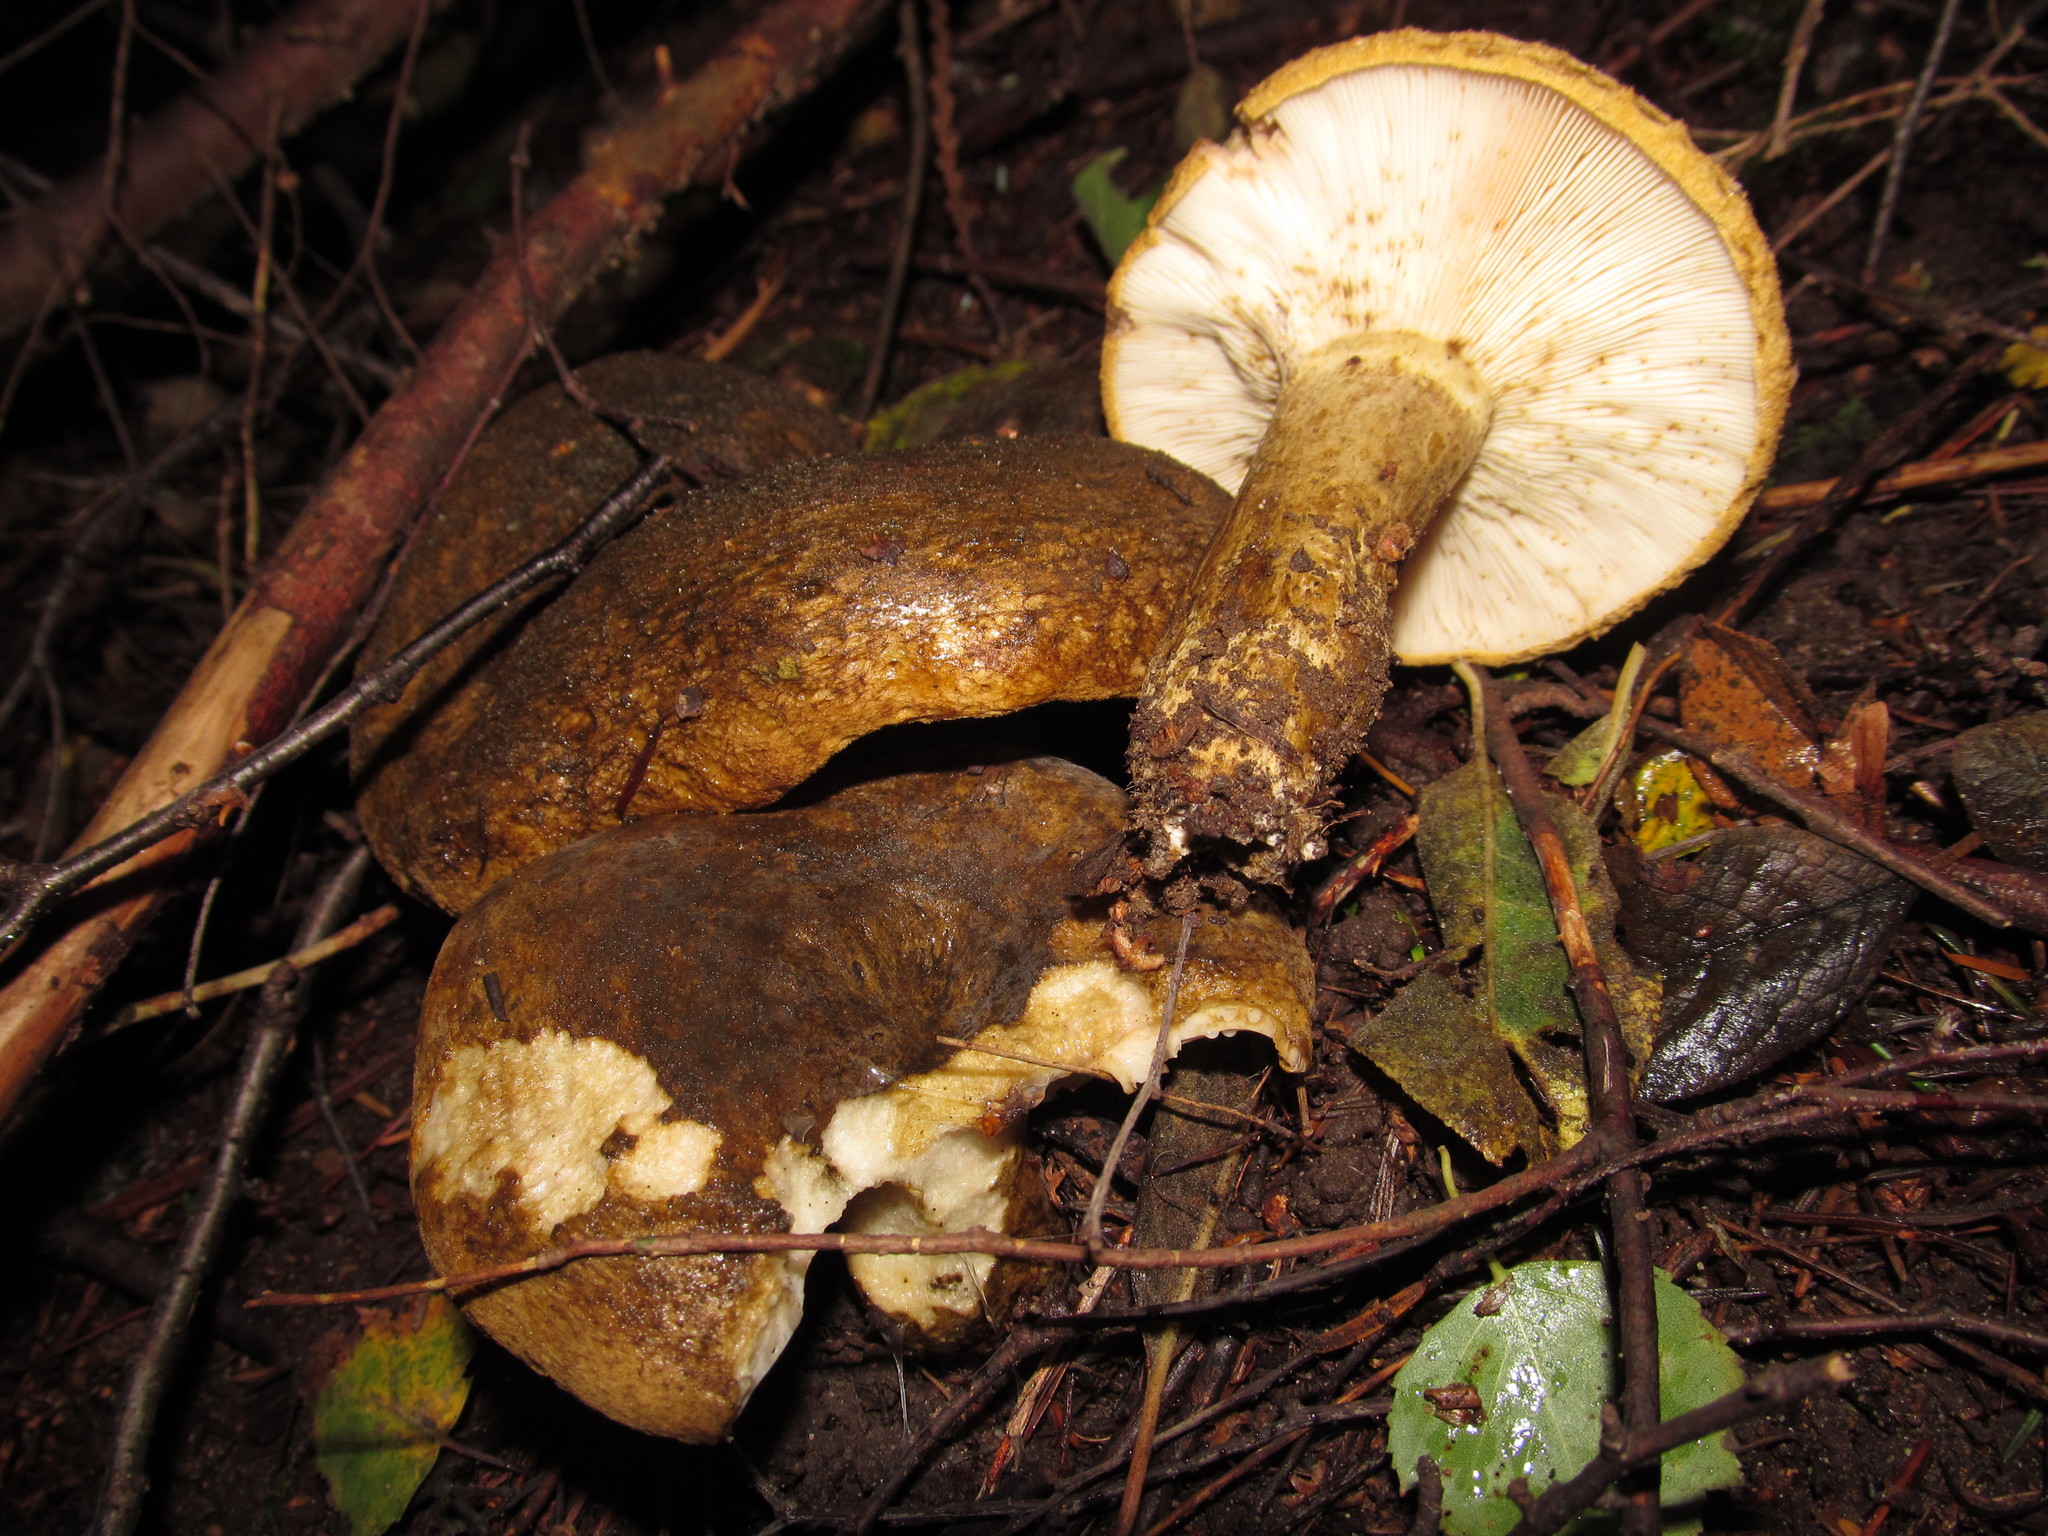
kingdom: Fungi
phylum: Basidiomycota
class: Agaricomycetes
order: Russulales
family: Russulaceae
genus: Lactarius
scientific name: Lactarius turpis
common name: Ugly milk-cap
